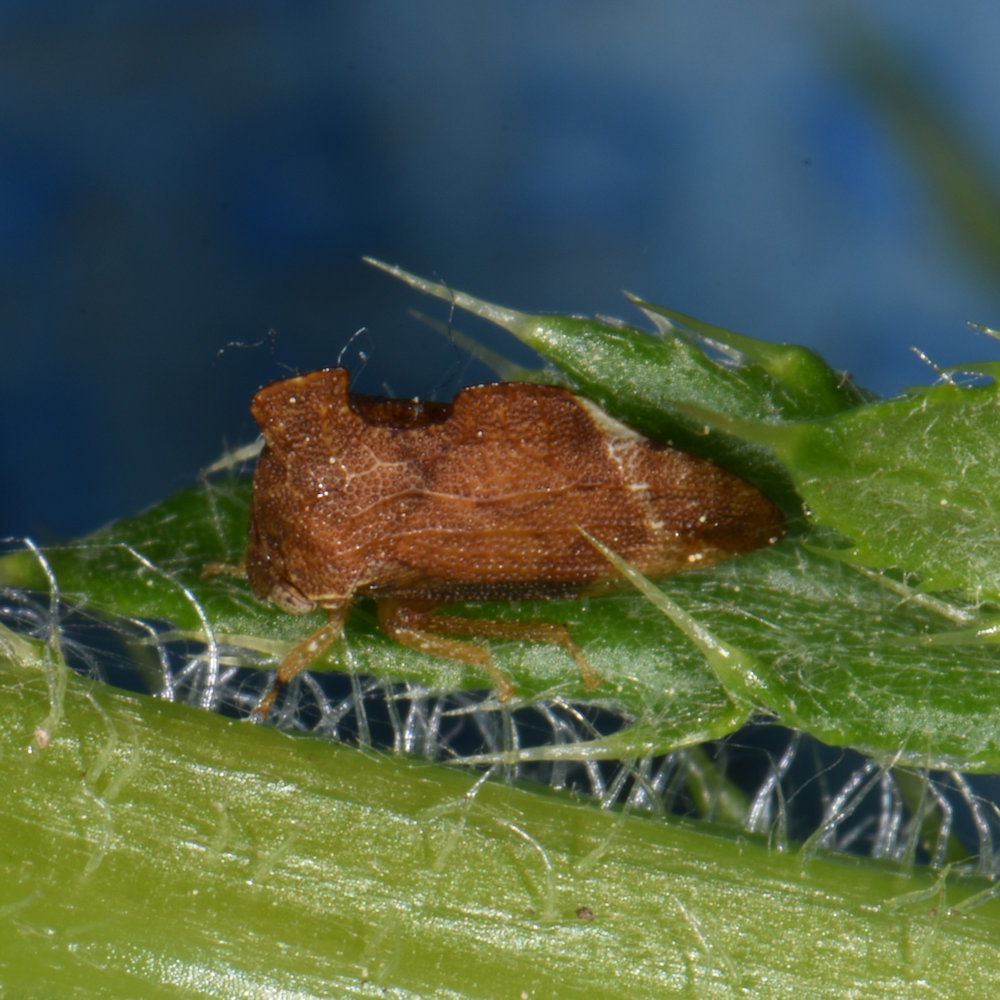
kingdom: Animalia
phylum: Arthropoda
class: Insecta
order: Hemiptera
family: Membracidae
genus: Entylia
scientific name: Entylia carinata
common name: Keeled treehopper
